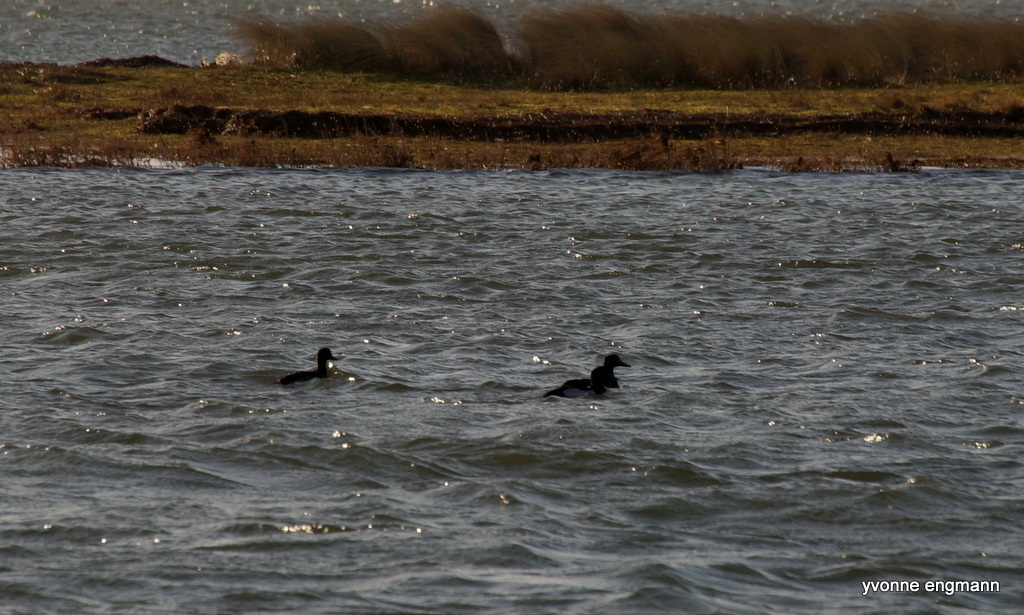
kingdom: Animalia
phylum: Chordata
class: Aves
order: Anseriformes
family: Anatidae
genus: Aythya
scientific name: Aythya fuligula
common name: Tufted duck
